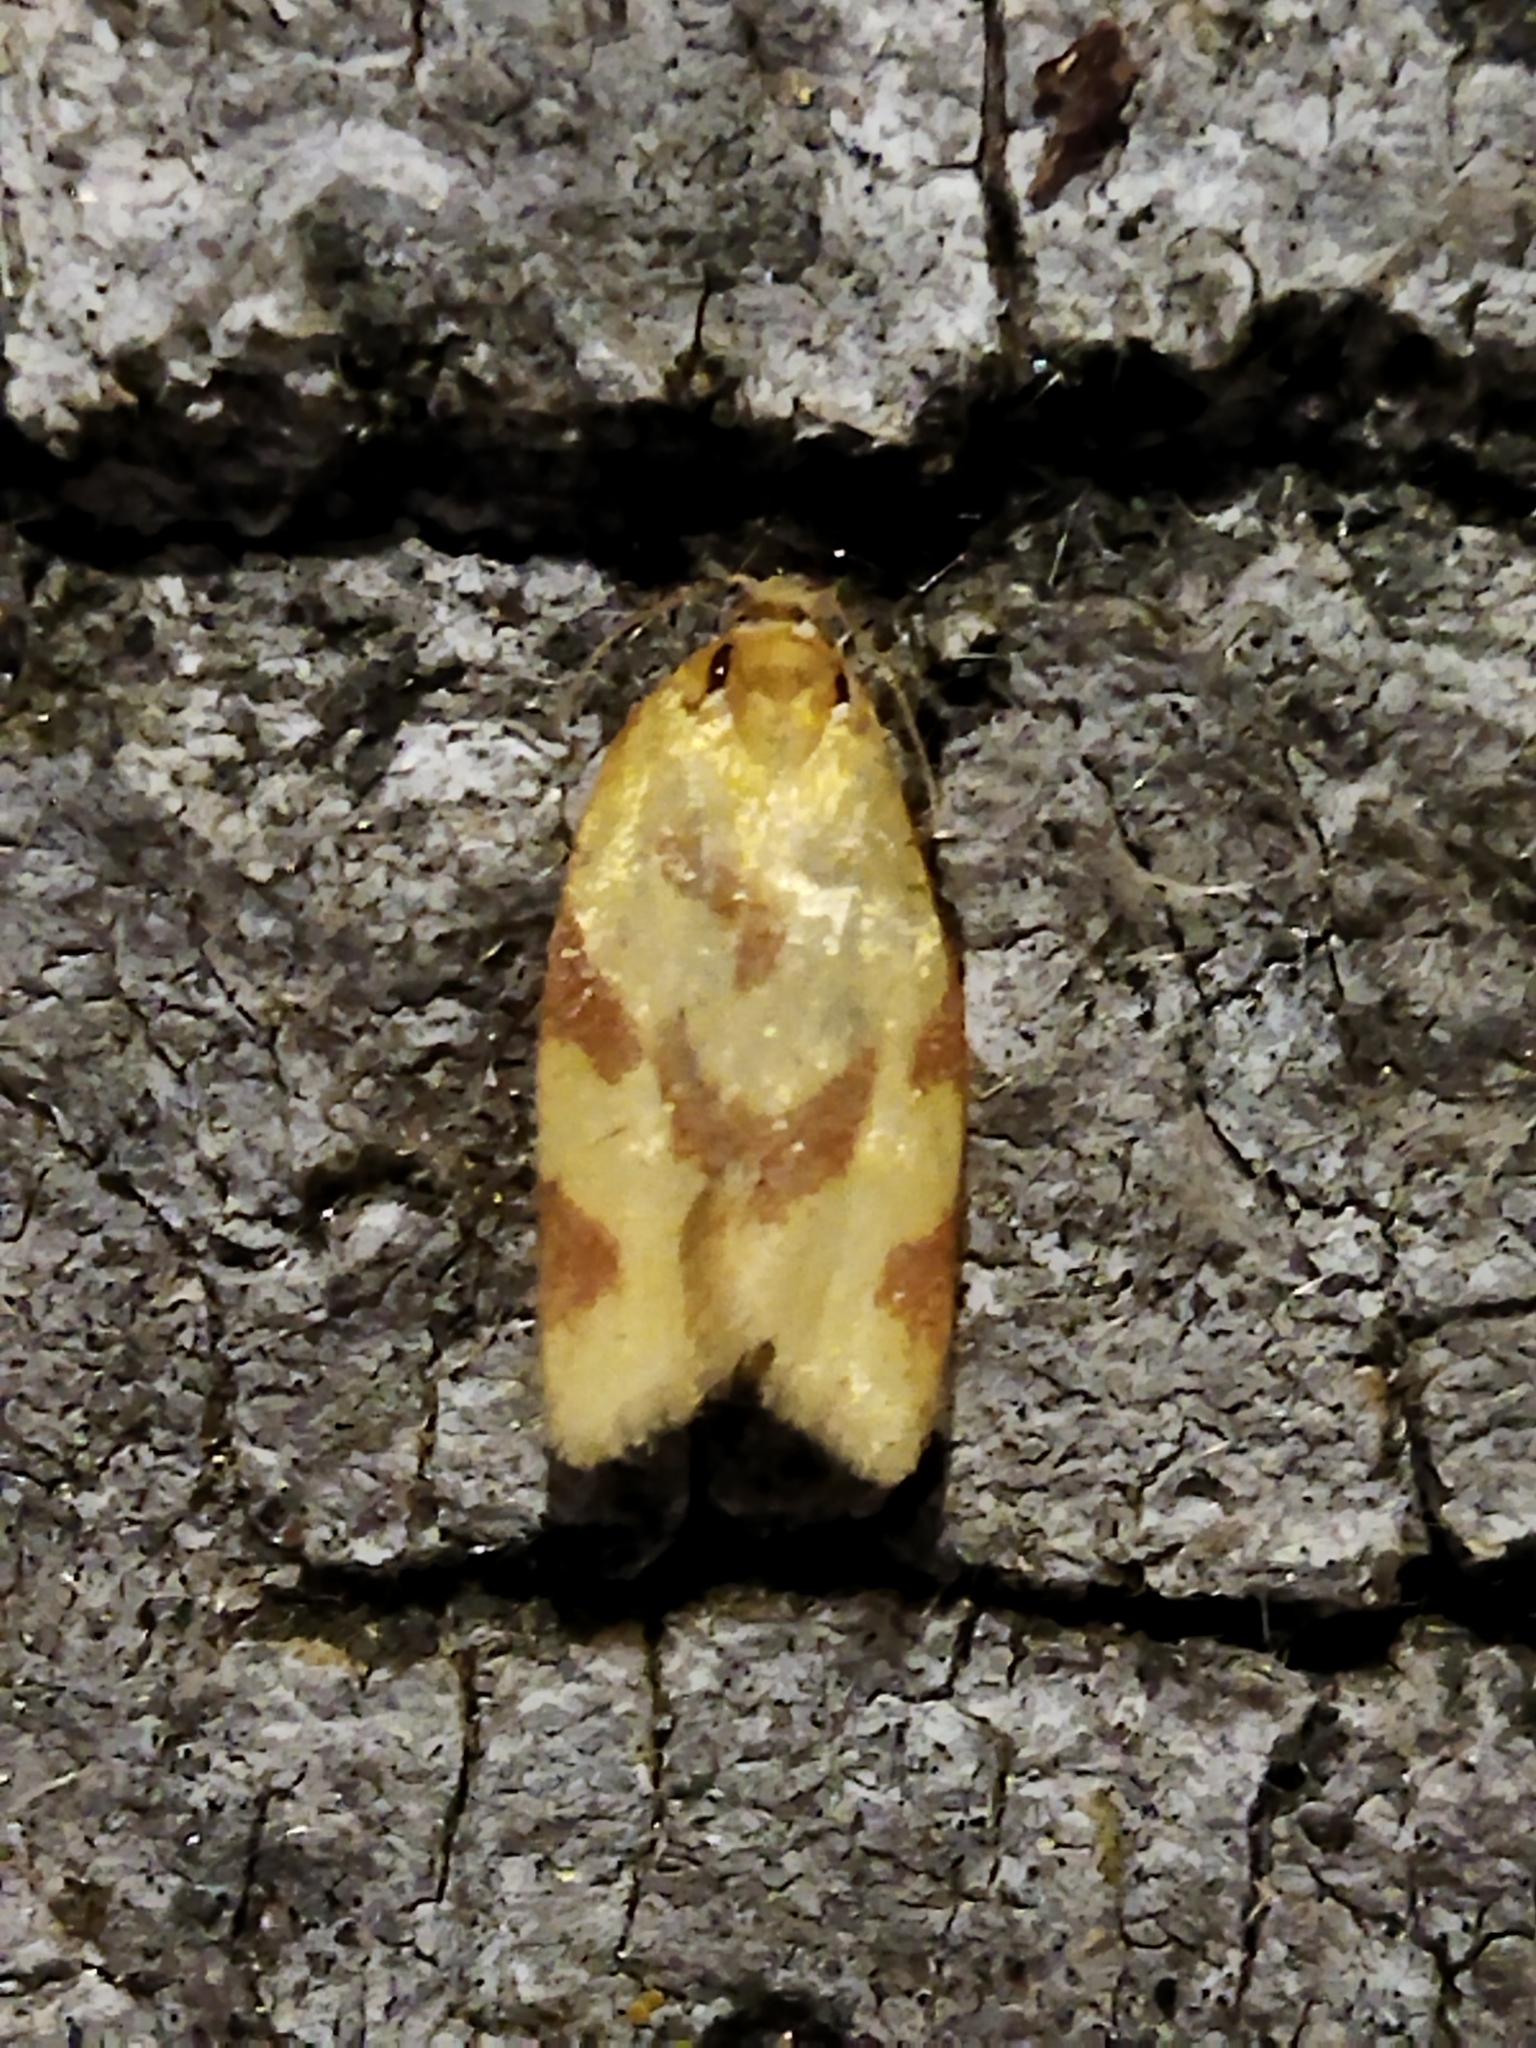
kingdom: Animalia
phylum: Arthropoda
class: Insecta
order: Lepidoptera
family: Tortricidae
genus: Clepsis
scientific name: Clepsis pallidana
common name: Sheep's-bit conch
